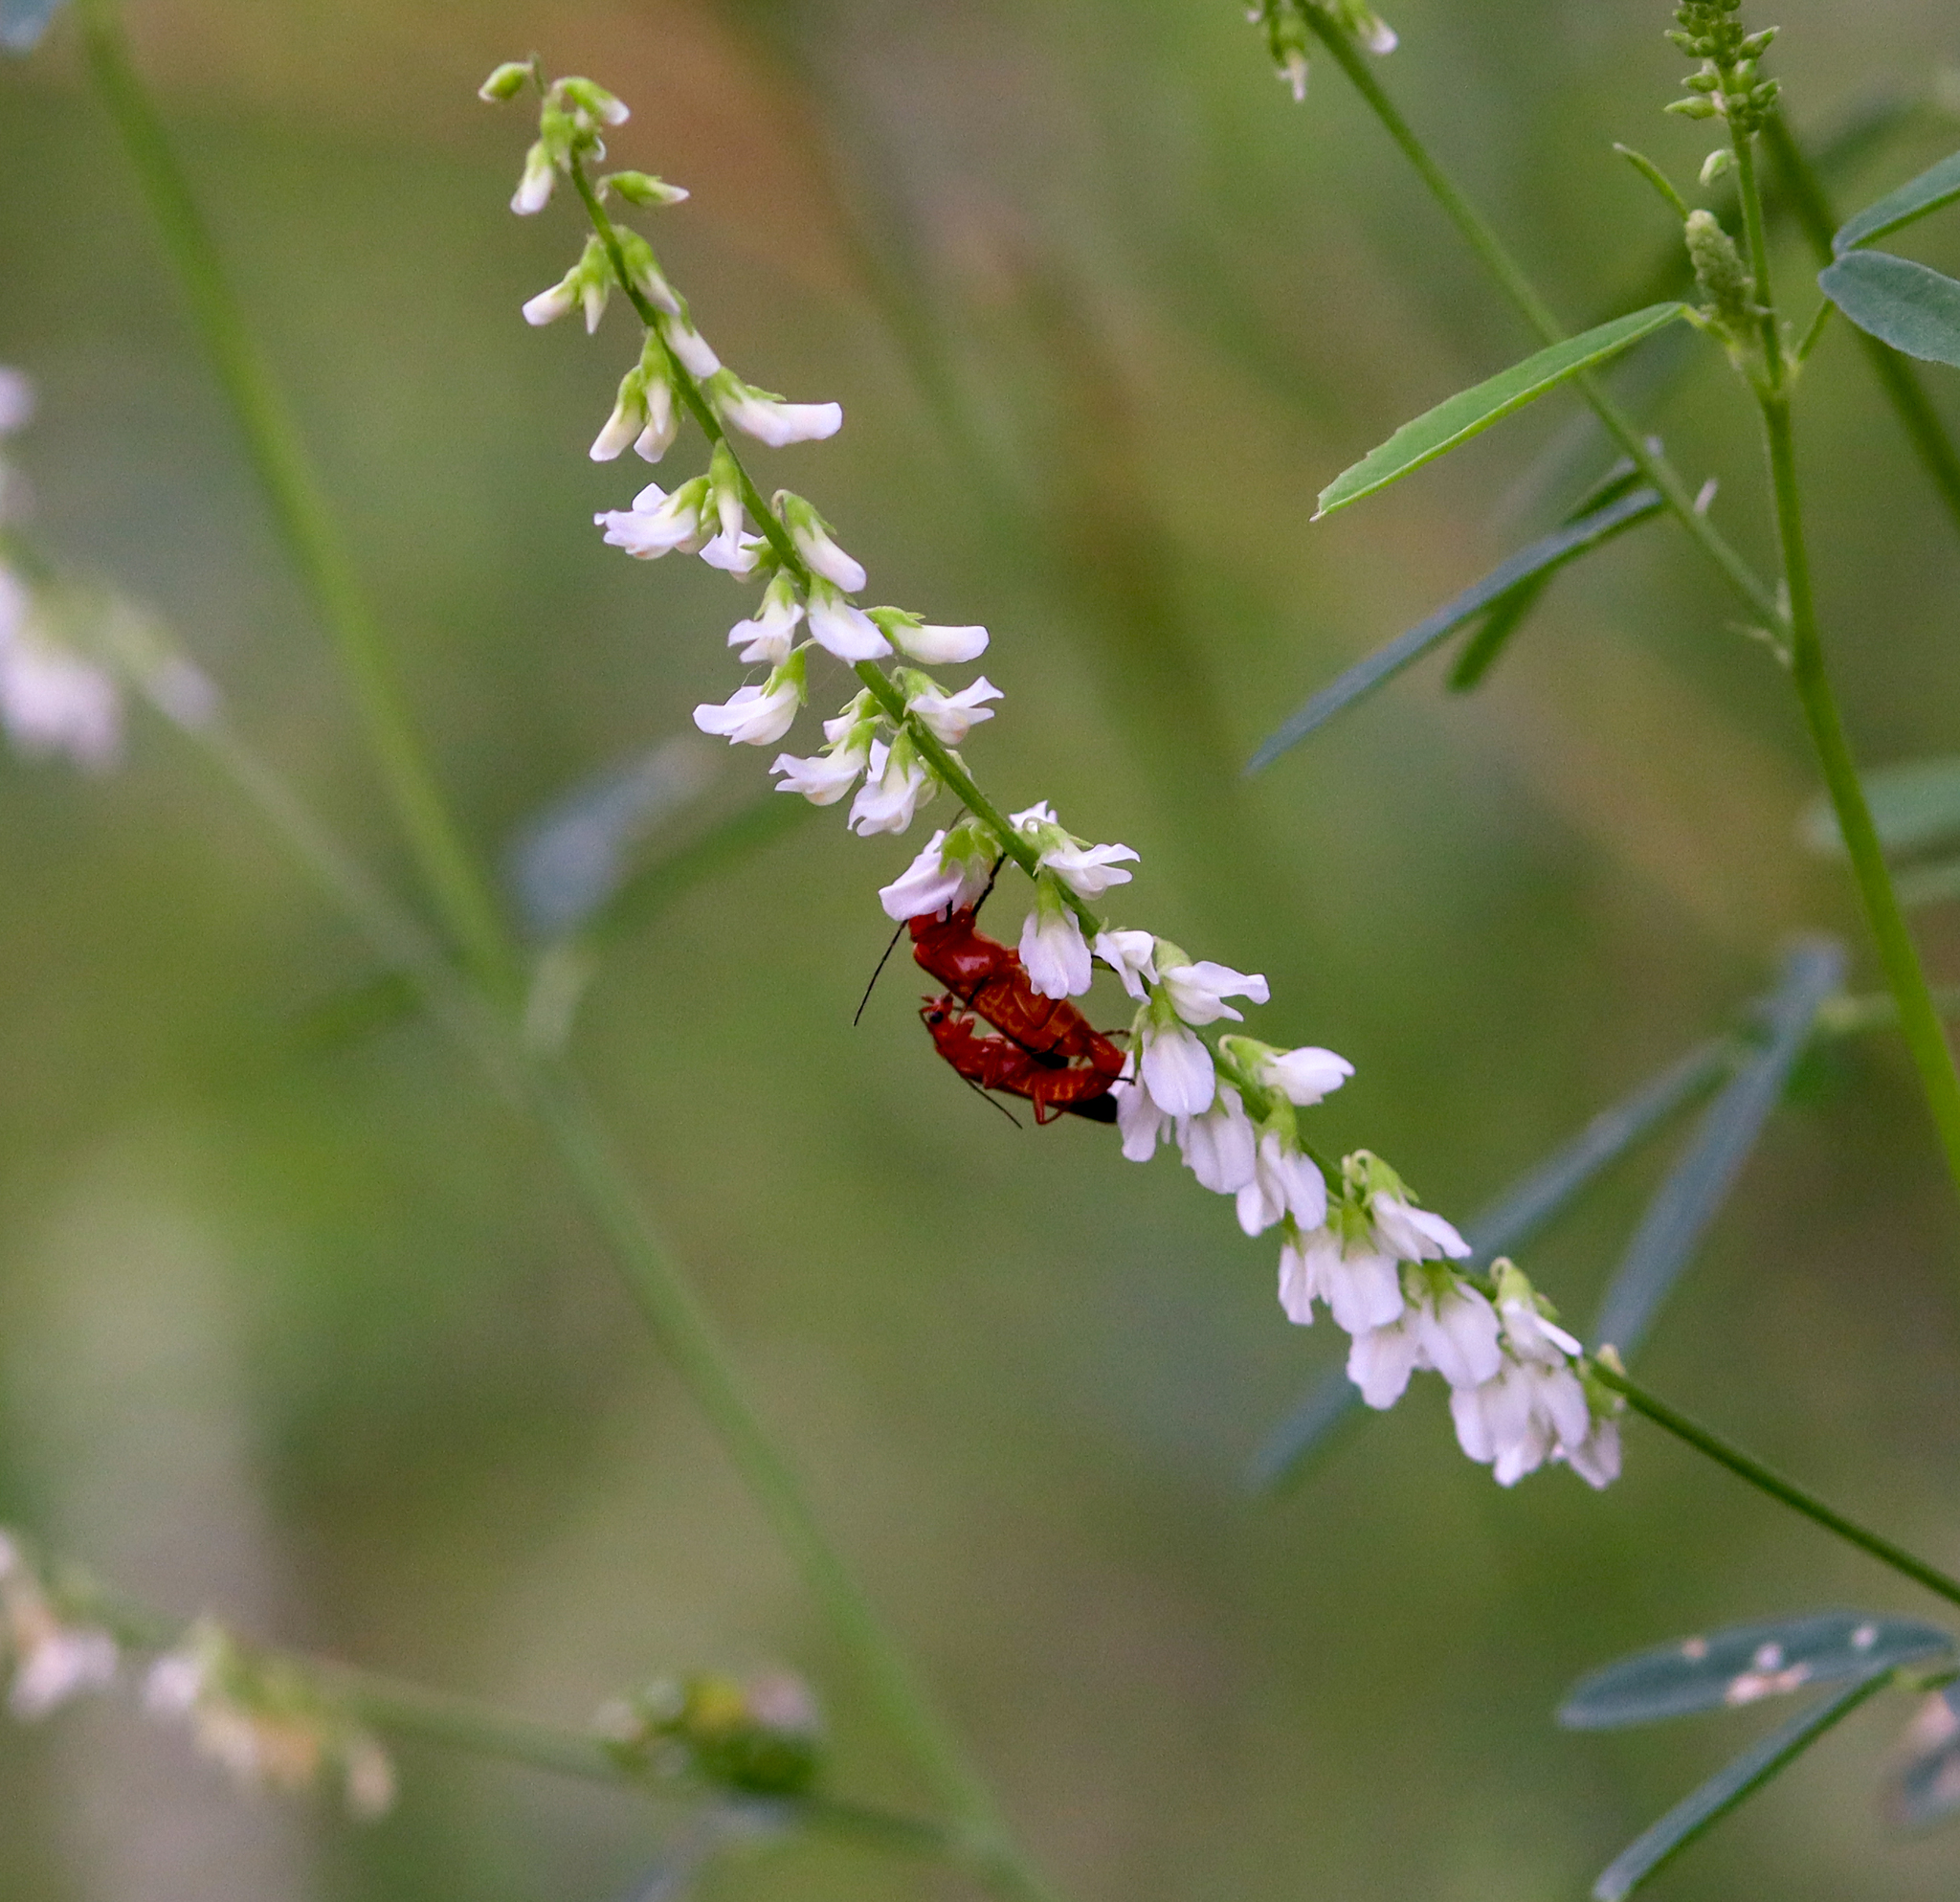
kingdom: Animalia
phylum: Arthropoda
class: Insecta
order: Coleoptera
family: Cantharidae
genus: Rhagonycha
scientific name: Rhagonycha fulva
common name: Common red soldier beetle
